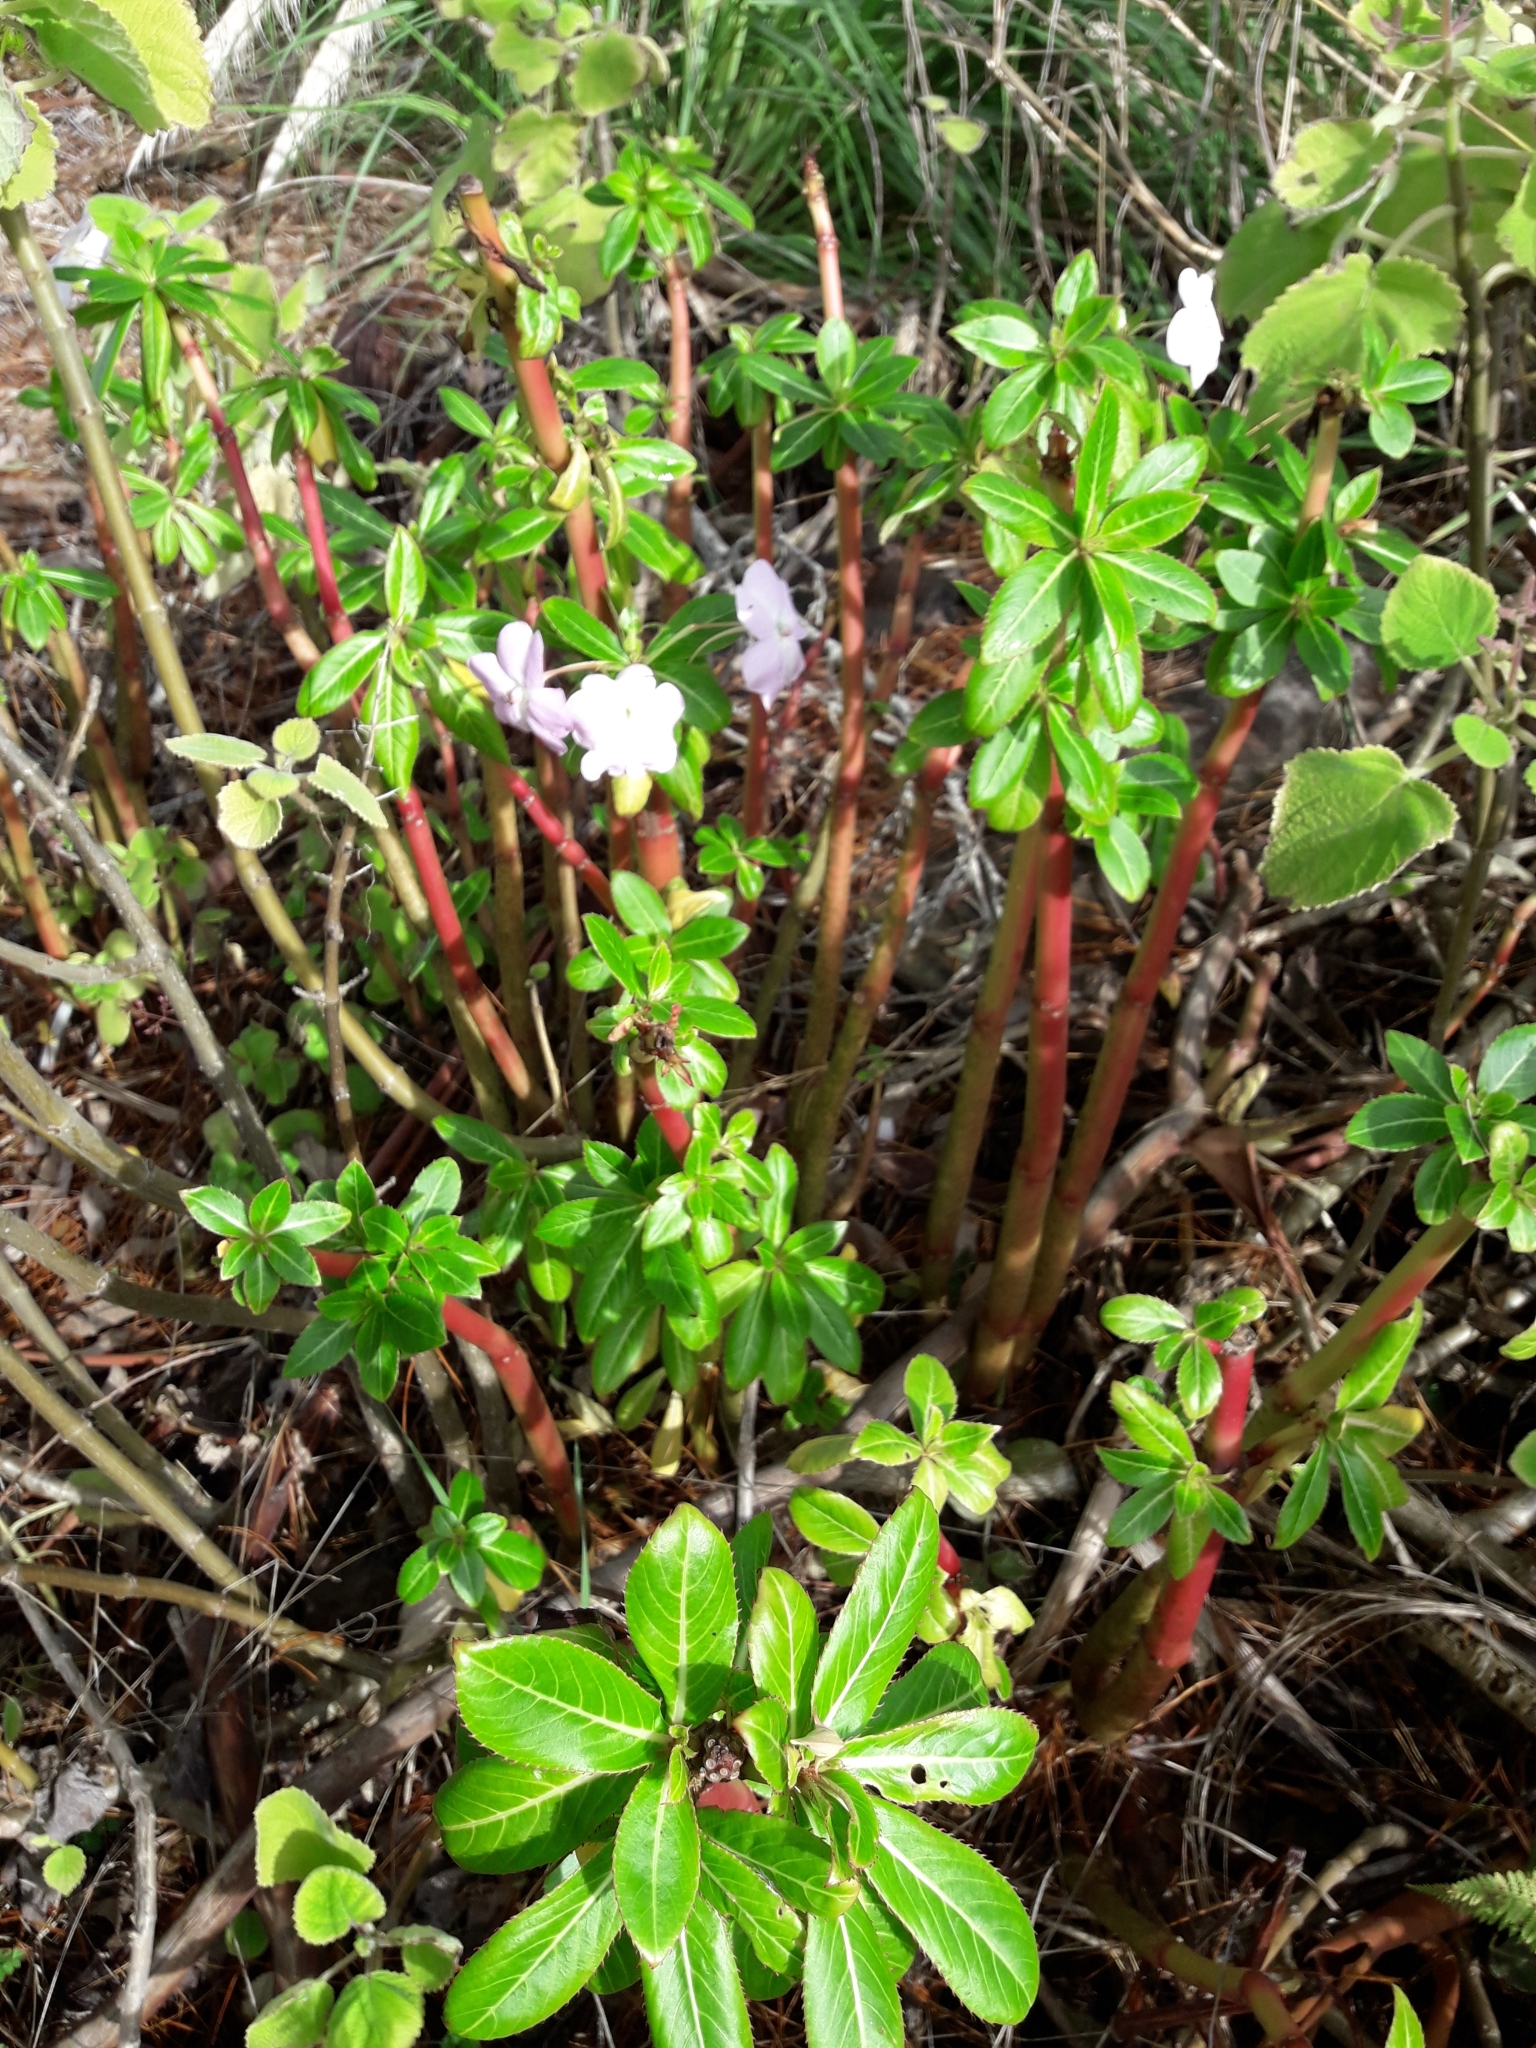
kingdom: Plantae
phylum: Tracheophyta
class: Magnoliopsida
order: Ericales
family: Balsaminaceae
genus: Impatiens
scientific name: Impatiens sodenii
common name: Oliver's touch-me-not
